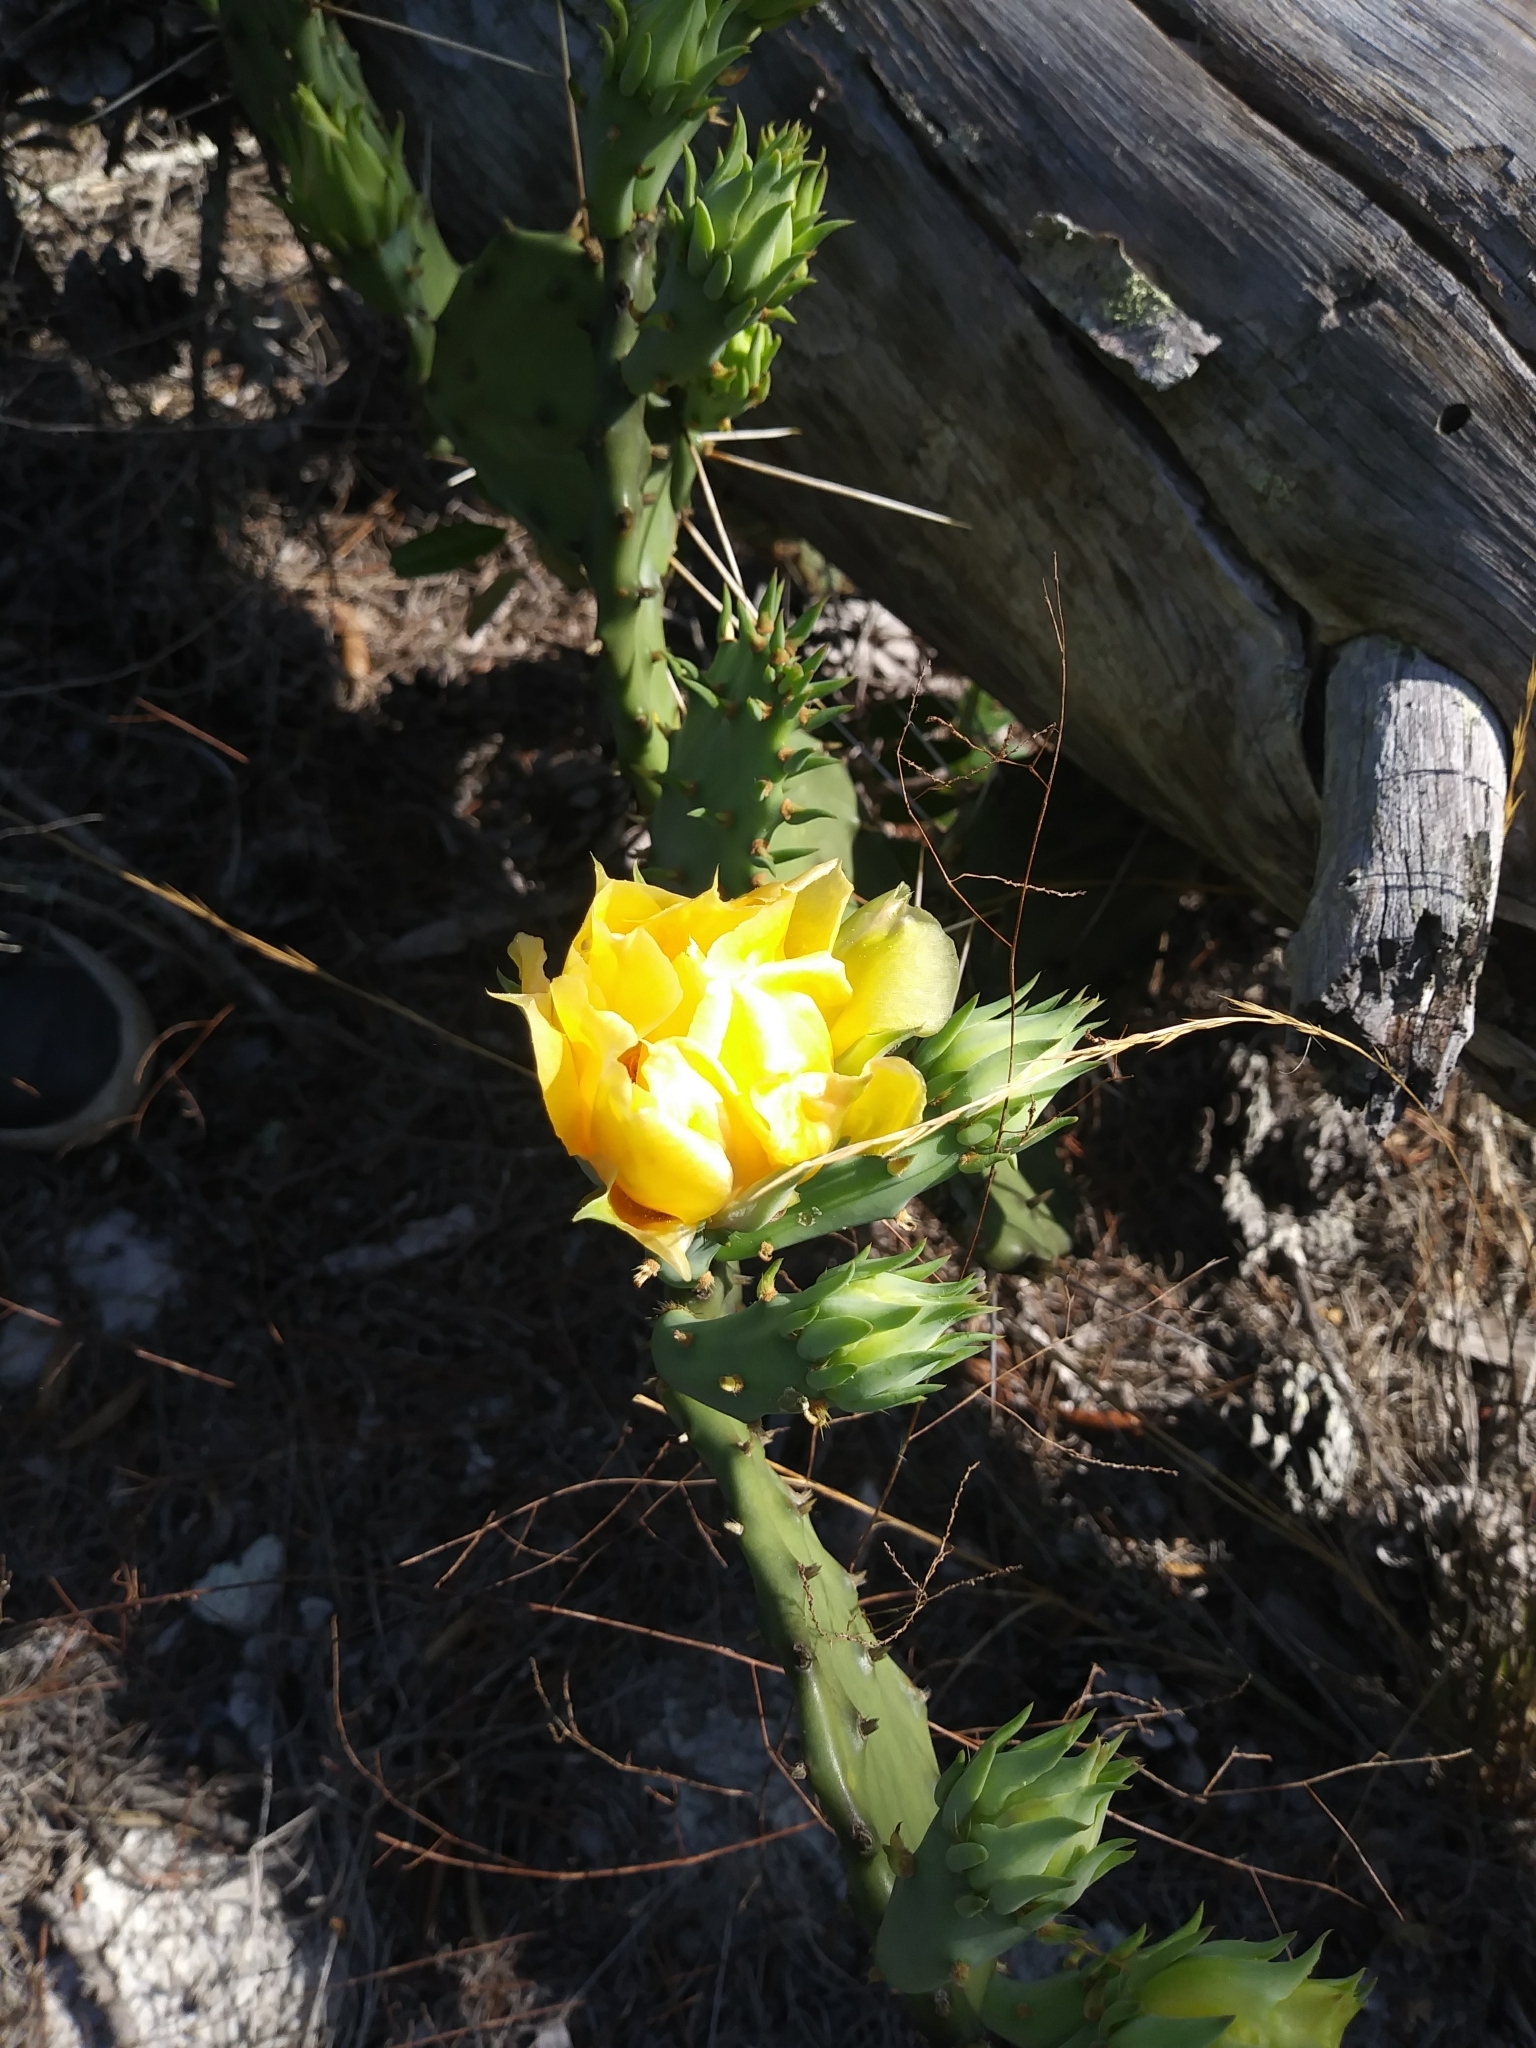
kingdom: Plantae
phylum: Tracheophyta
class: Magnoliopsida
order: Caryophyllales
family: Cactaceae
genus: Opuntia
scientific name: Opuntia austrina
